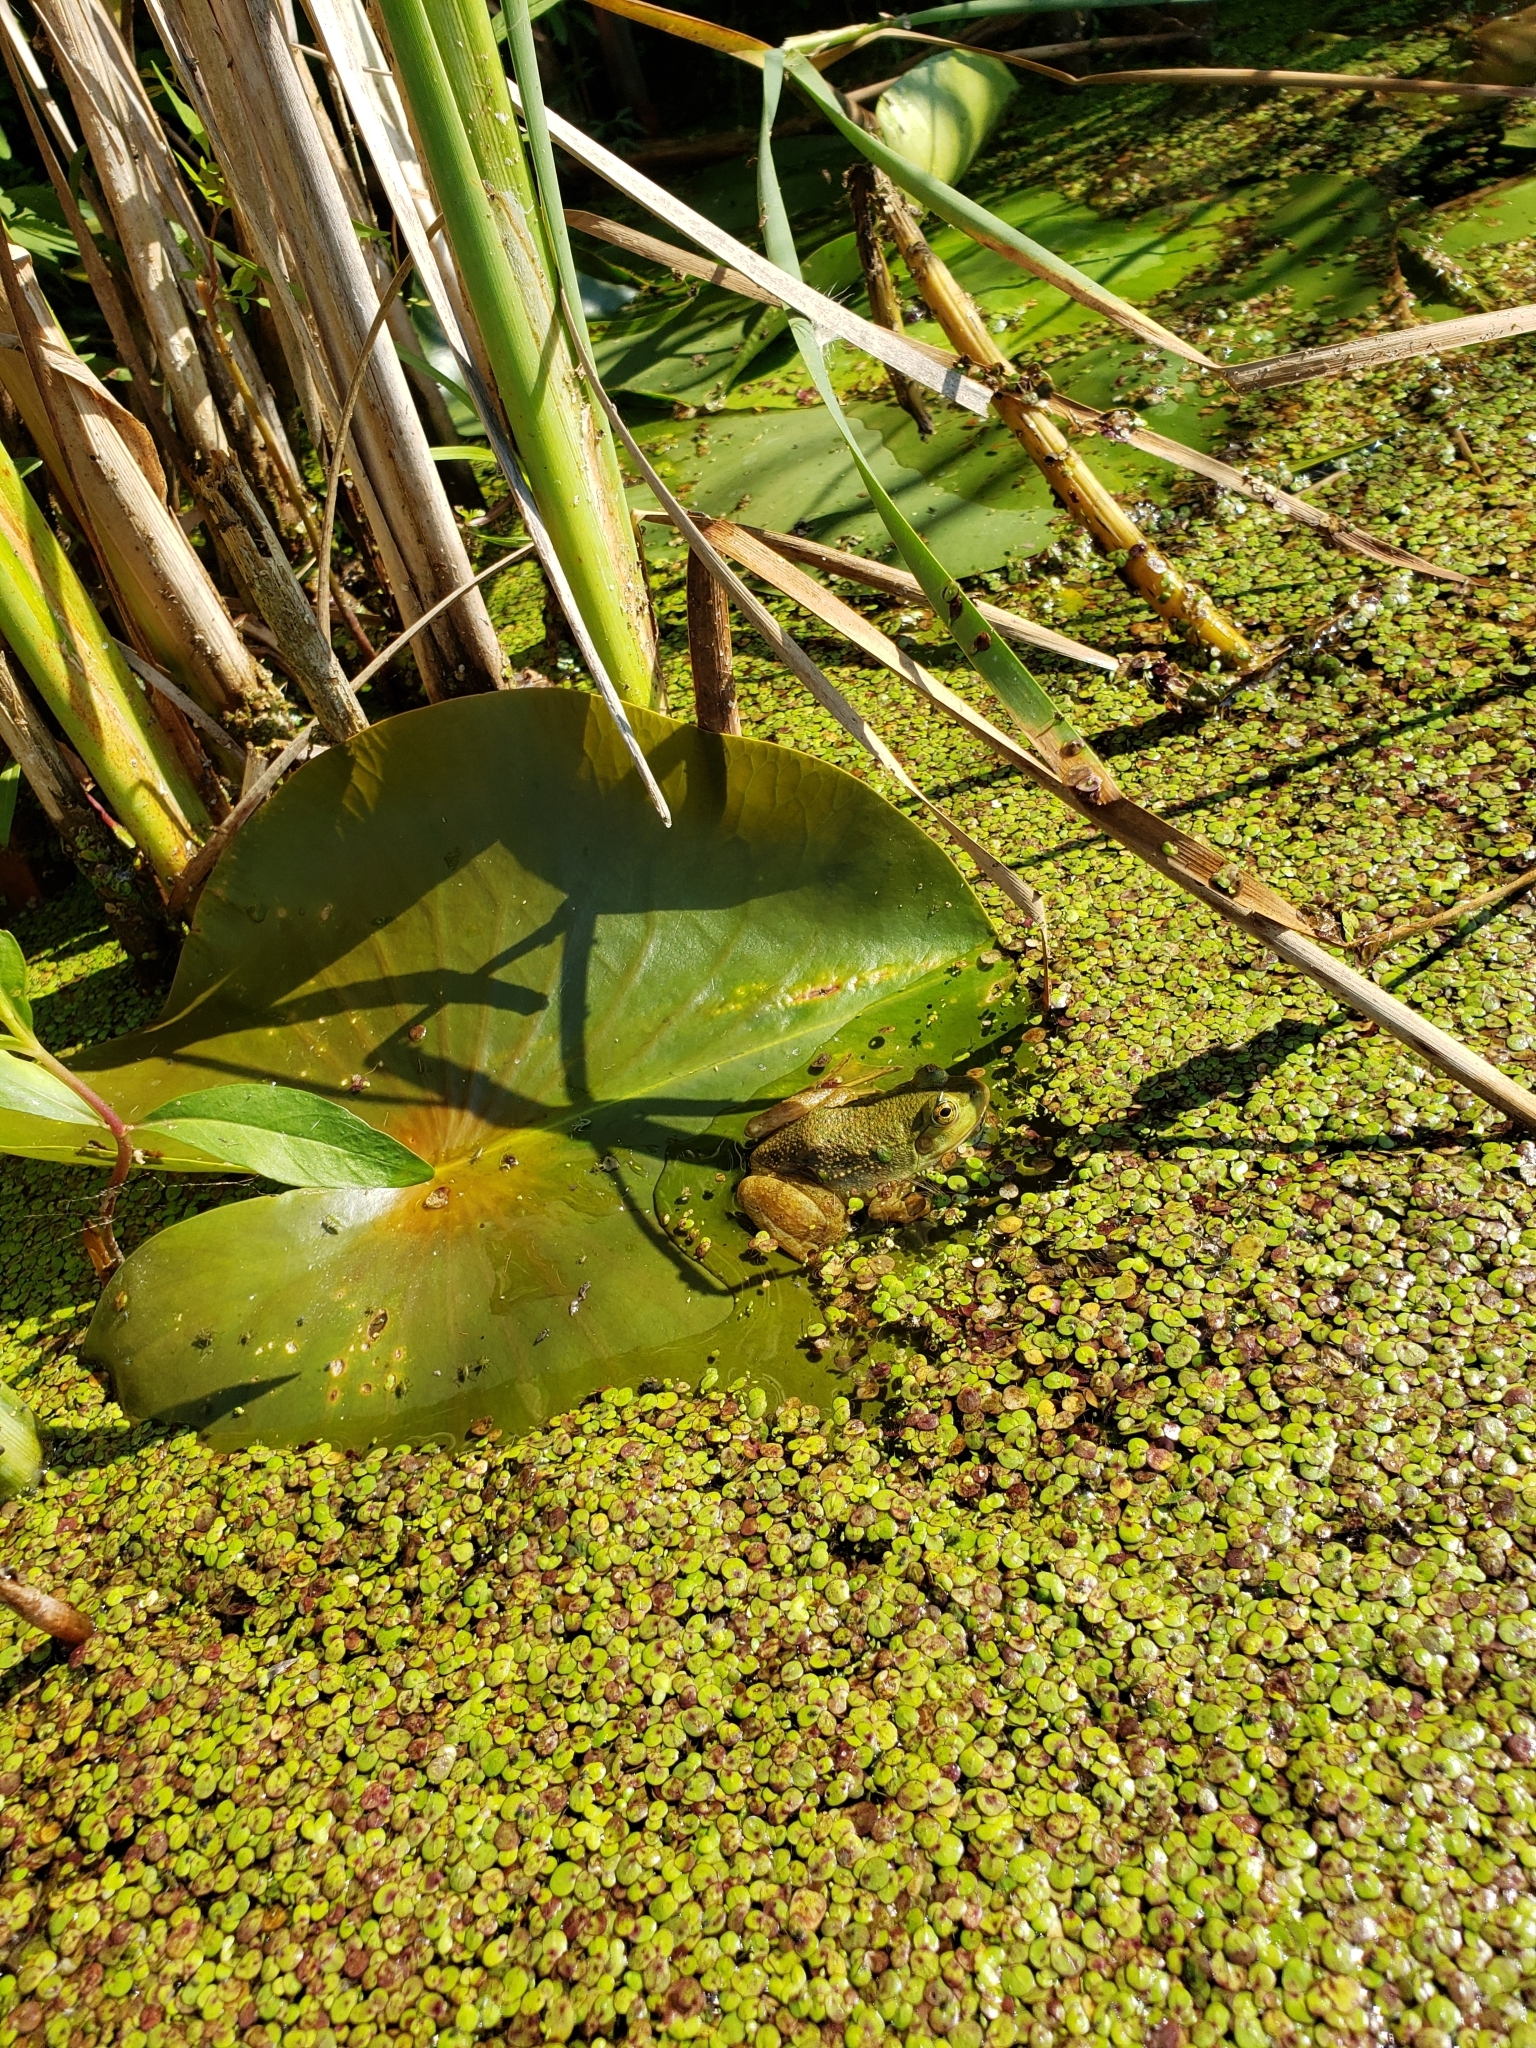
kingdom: Animalia
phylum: Chordata
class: Amphibia
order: Anura
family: Ranidae
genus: Lithobates
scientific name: Lithobates catesbeianus
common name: American bullfrog
